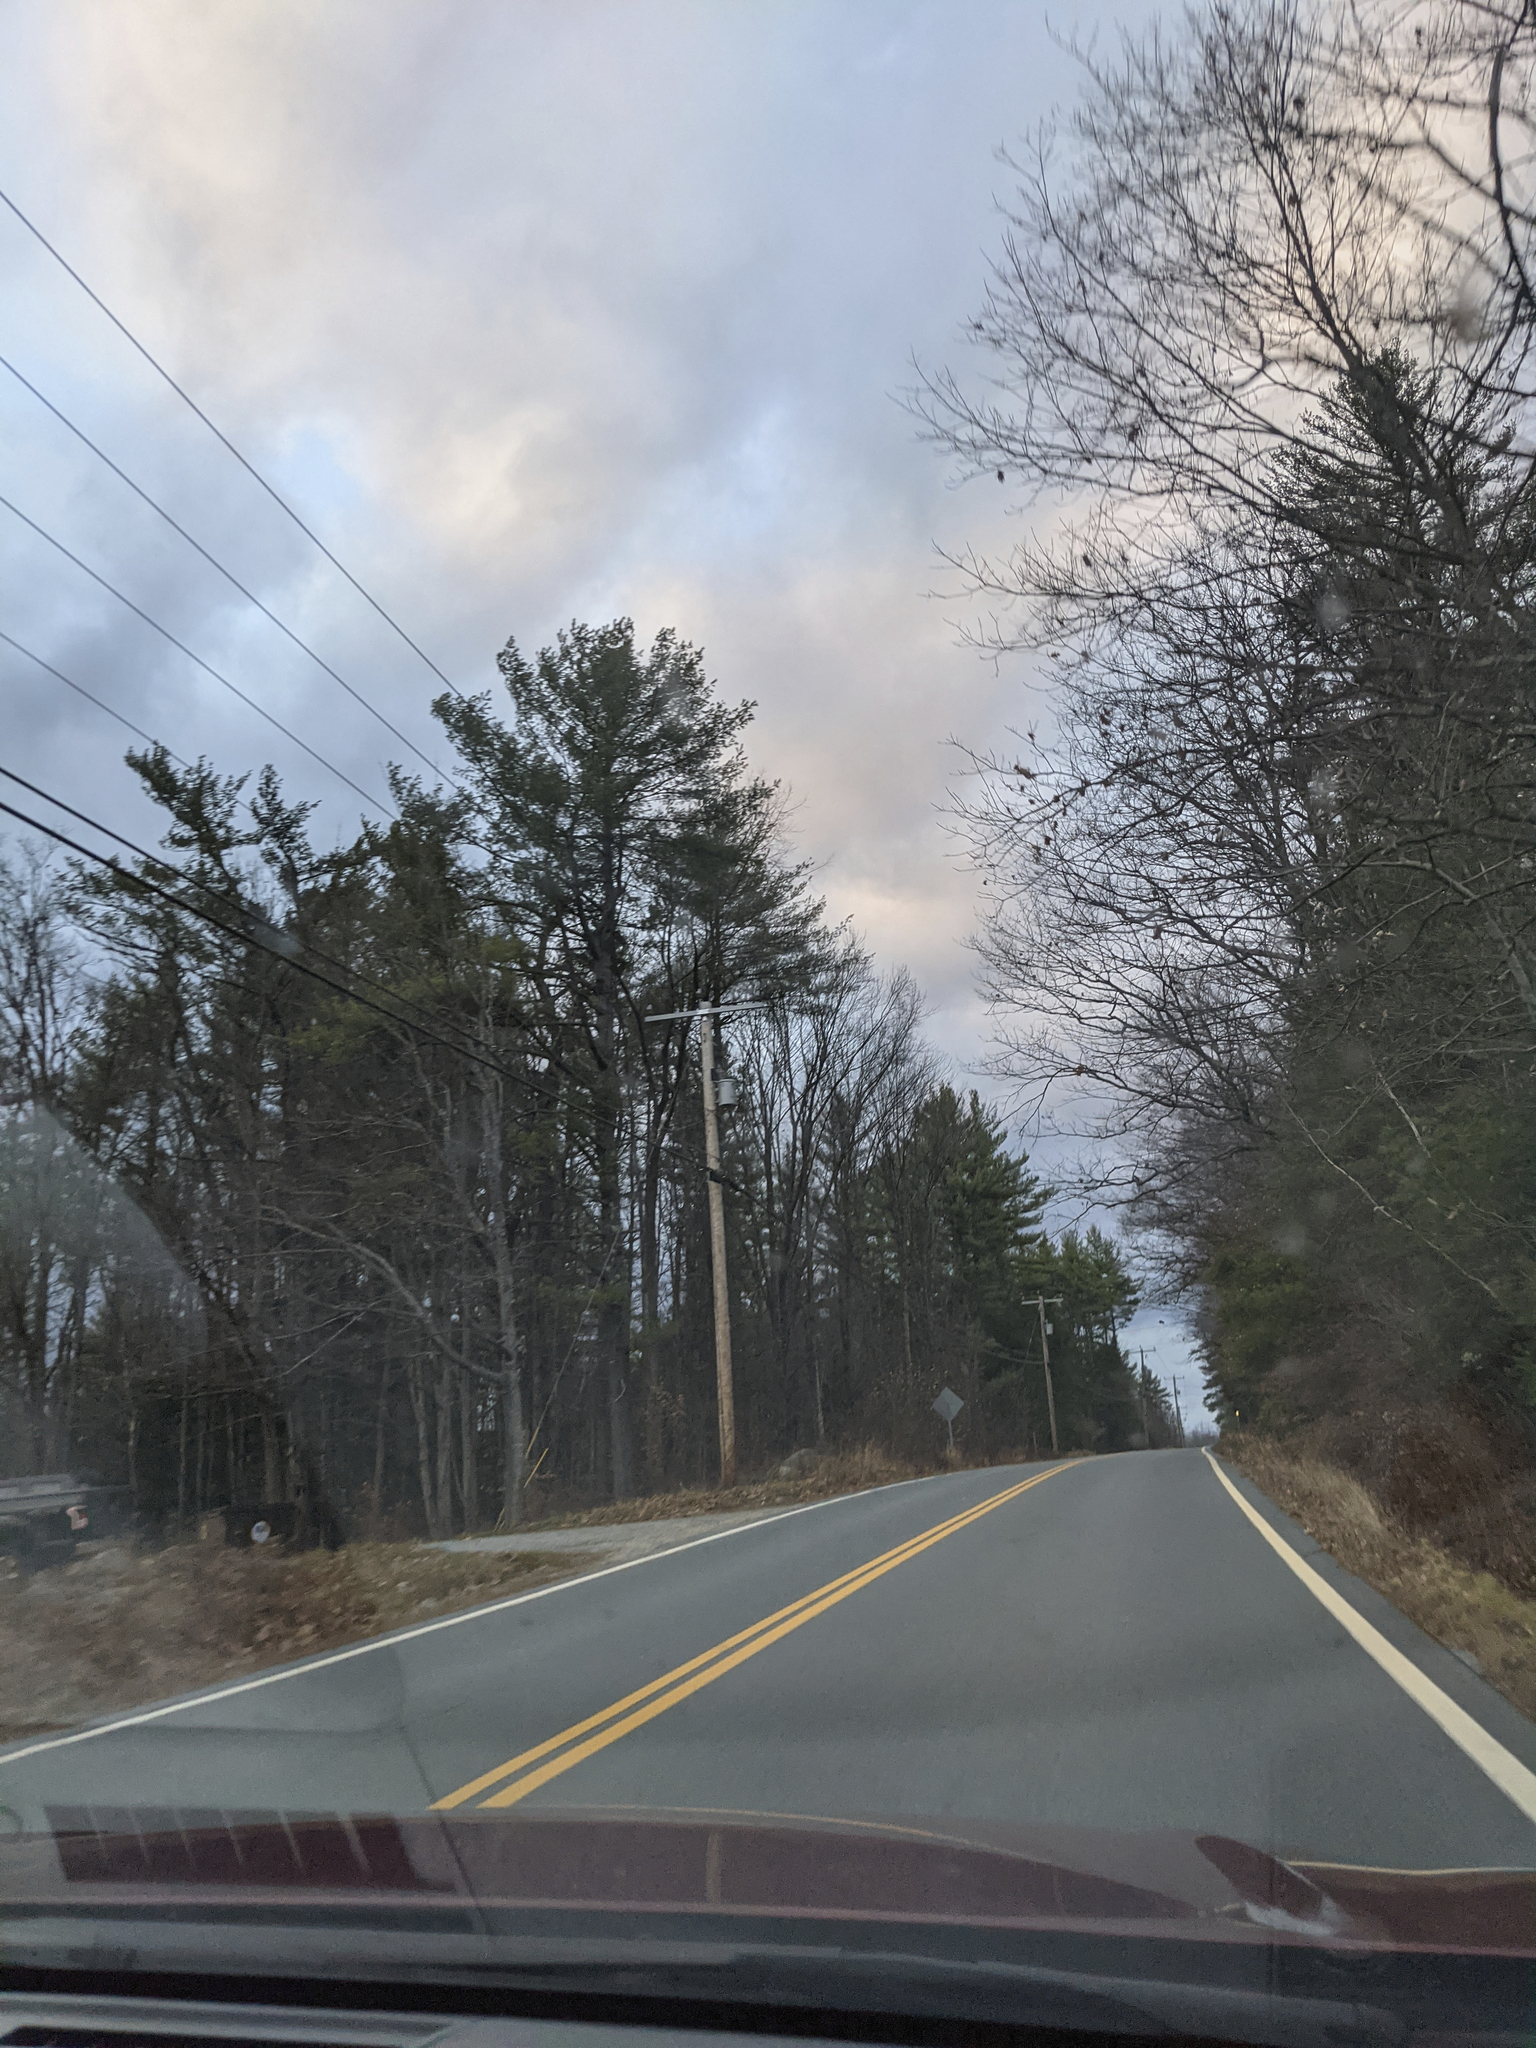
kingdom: Plantae
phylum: Tracheophyta
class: Pinopsida
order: Pinales
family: Pinaceae
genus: Pinus
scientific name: Pinus strobus
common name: Weymouth pine
